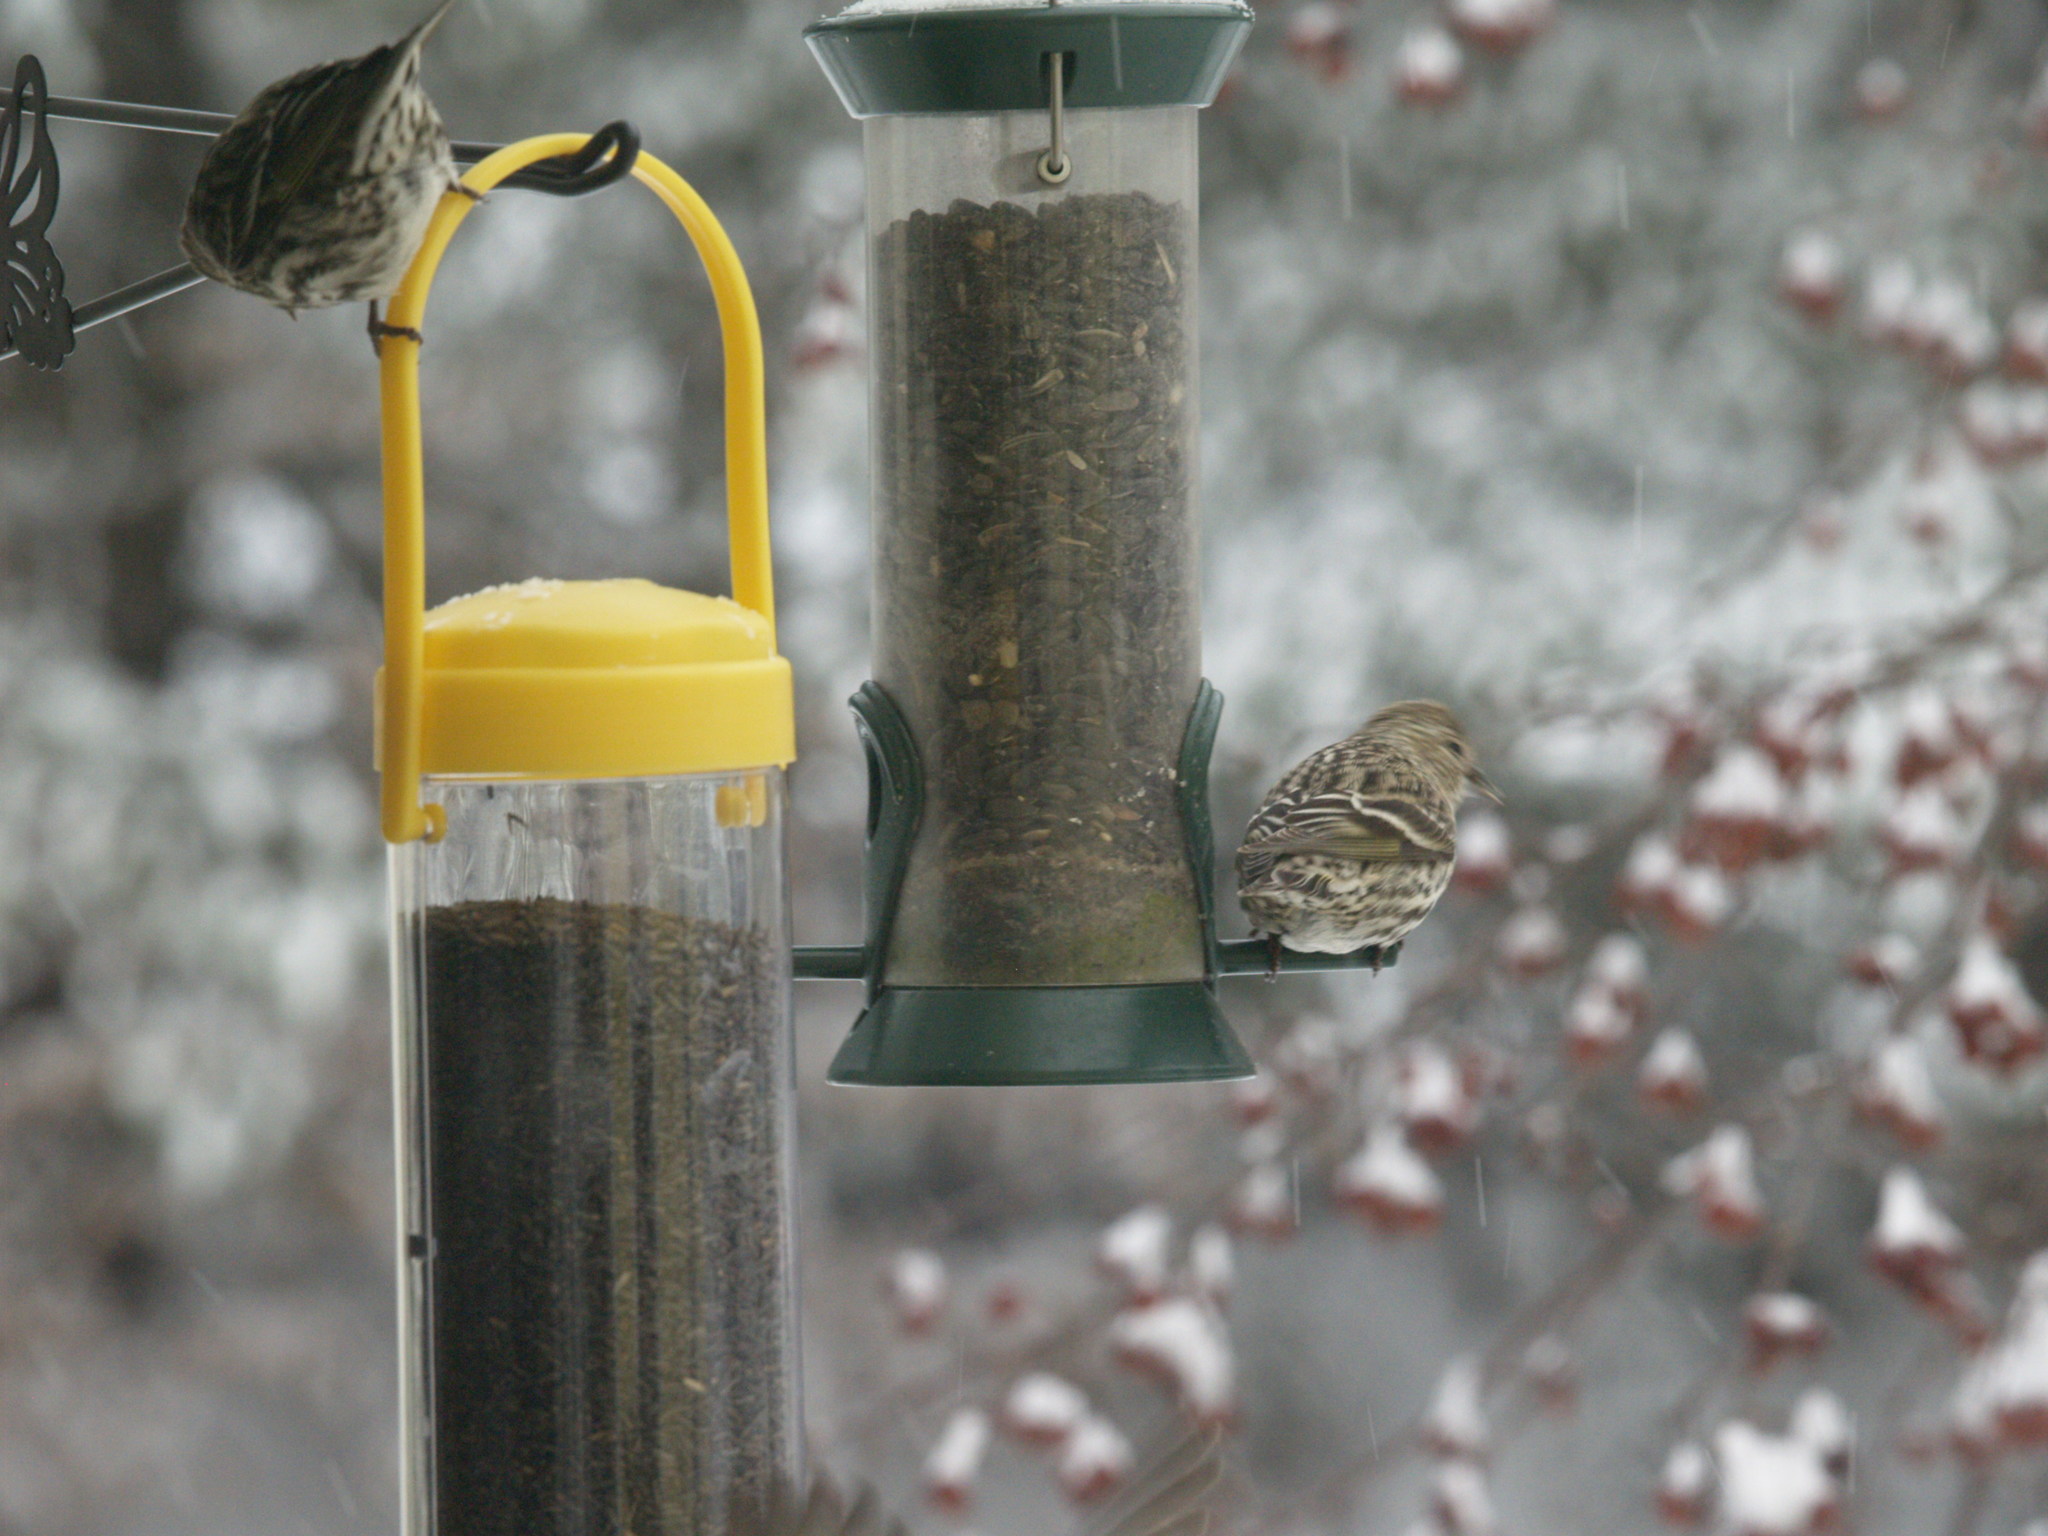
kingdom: Animalia
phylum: Chordata
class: Aves
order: Passeriformes
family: Fringillidae
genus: Spinus
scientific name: Spinus pinus
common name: Pine siskin
